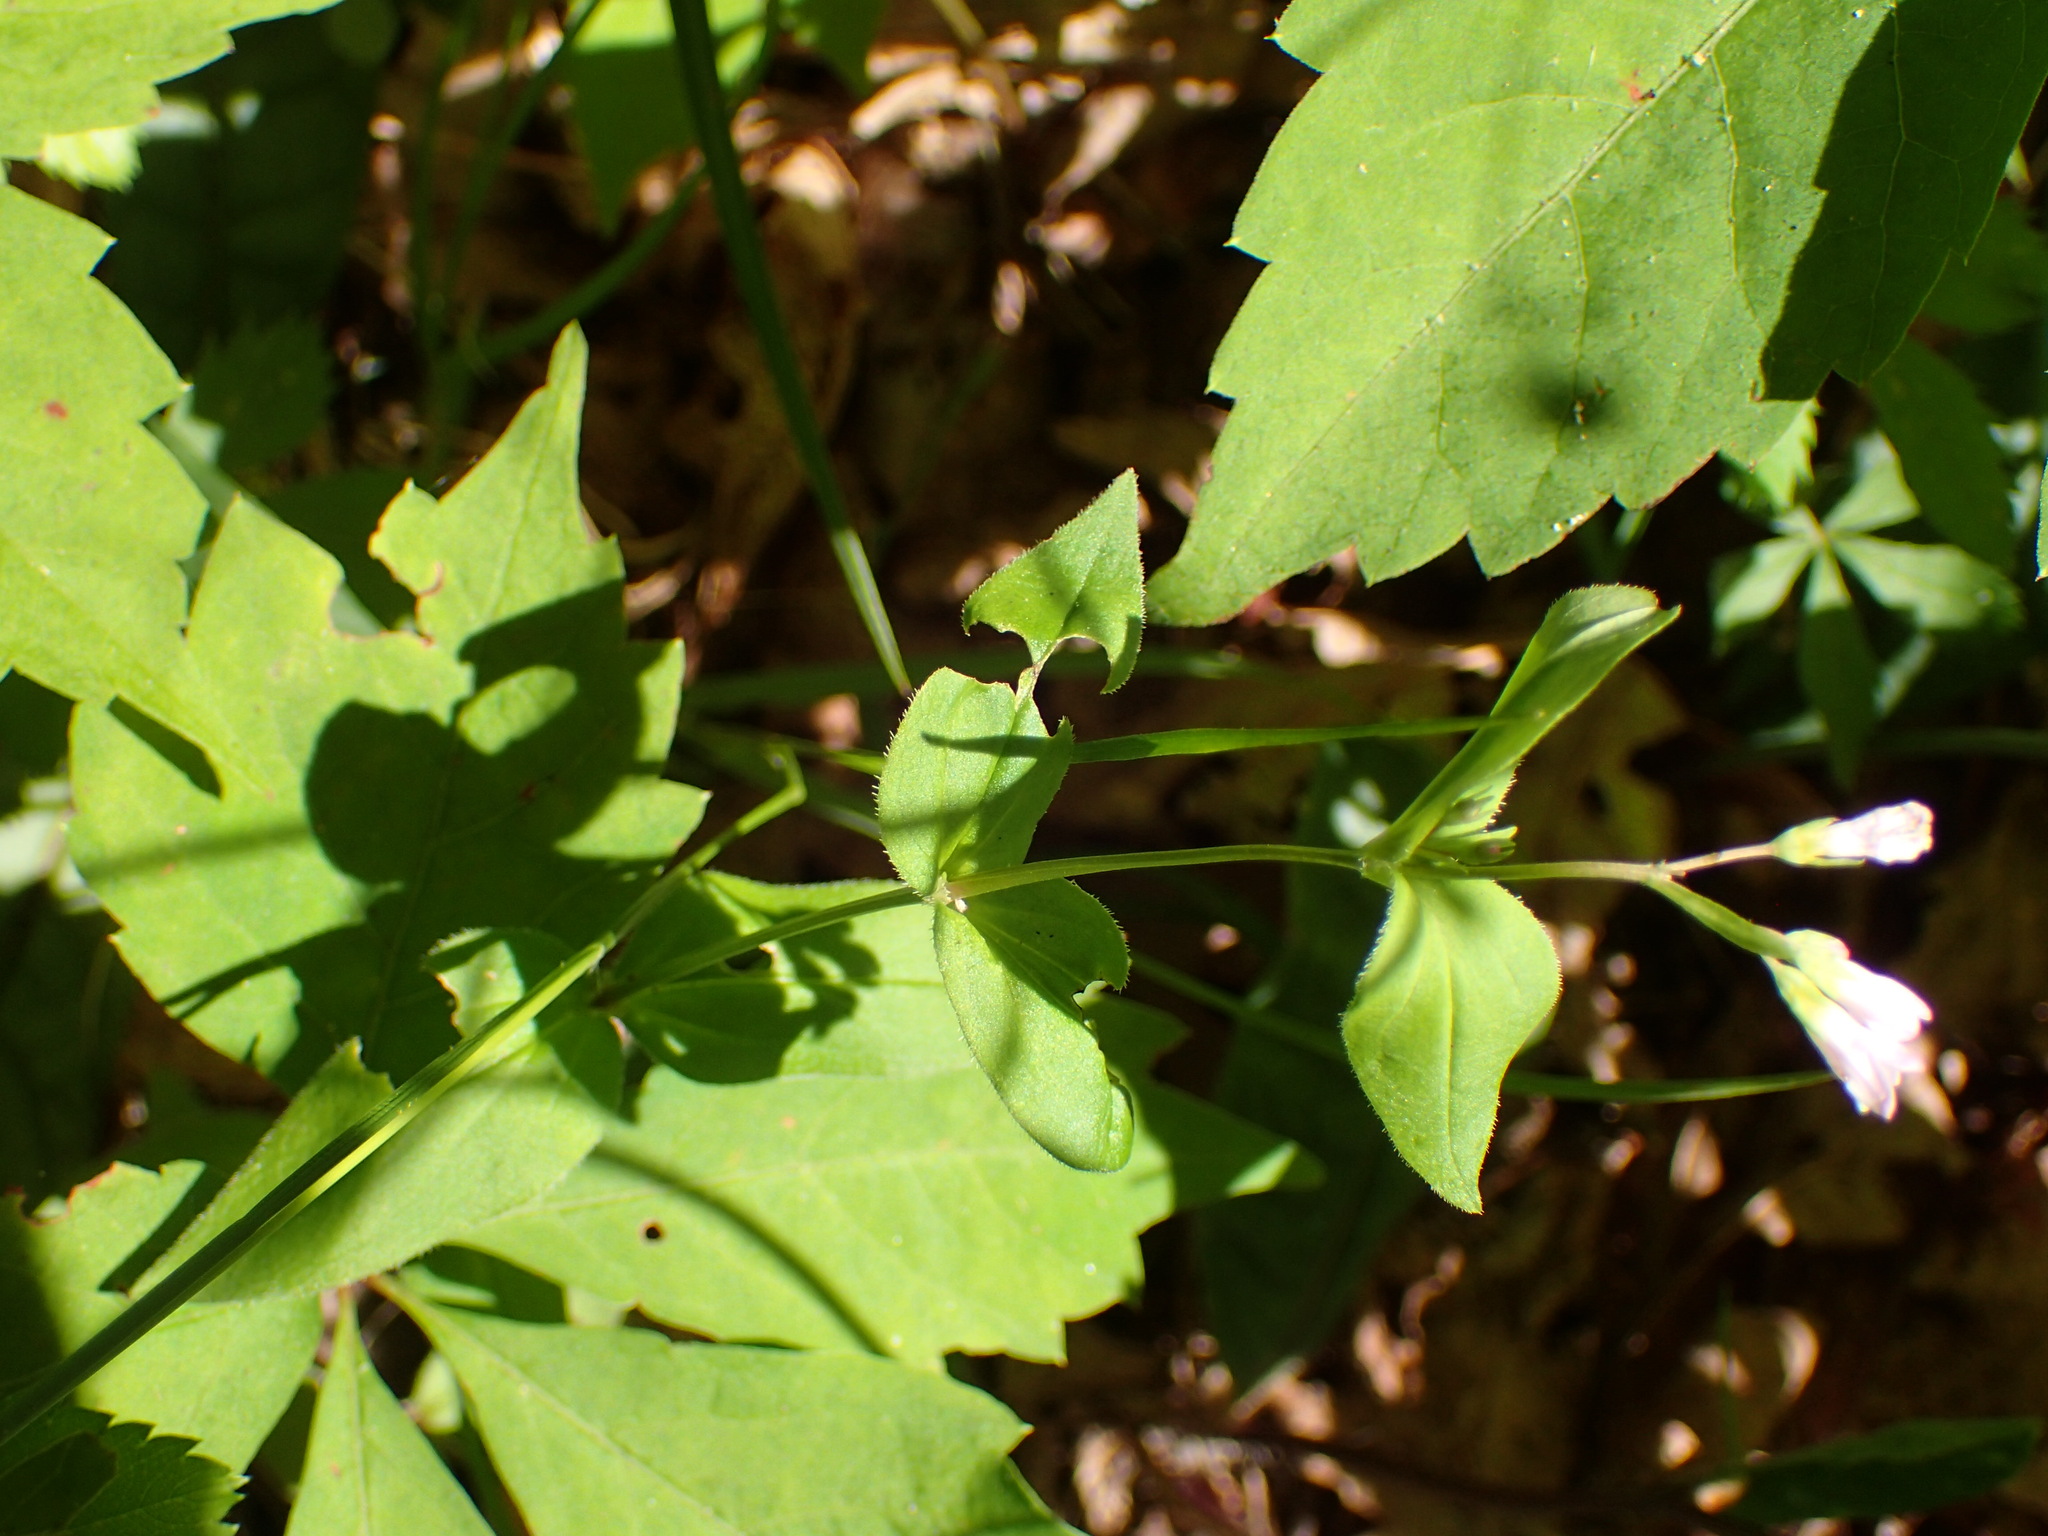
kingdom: Plantae
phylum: Tracheophyta
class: Magnoliopsida
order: Gentianales
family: Rubiaceae
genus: Houstonia
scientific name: Houstonia purpurea
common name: Summer bluet
